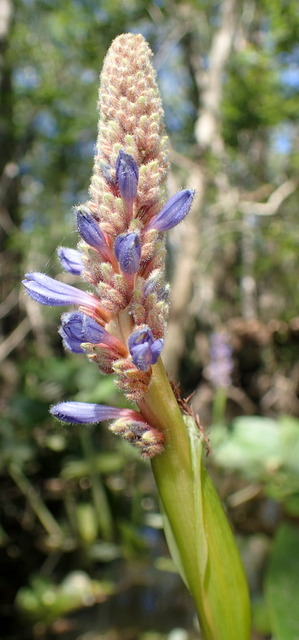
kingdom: Plantae
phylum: Tracheophyta
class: Liliopsida
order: Commelinales
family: Pontederiaceae
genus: Pontederia
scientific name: Pontederia cordata
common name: Pickerelweed
